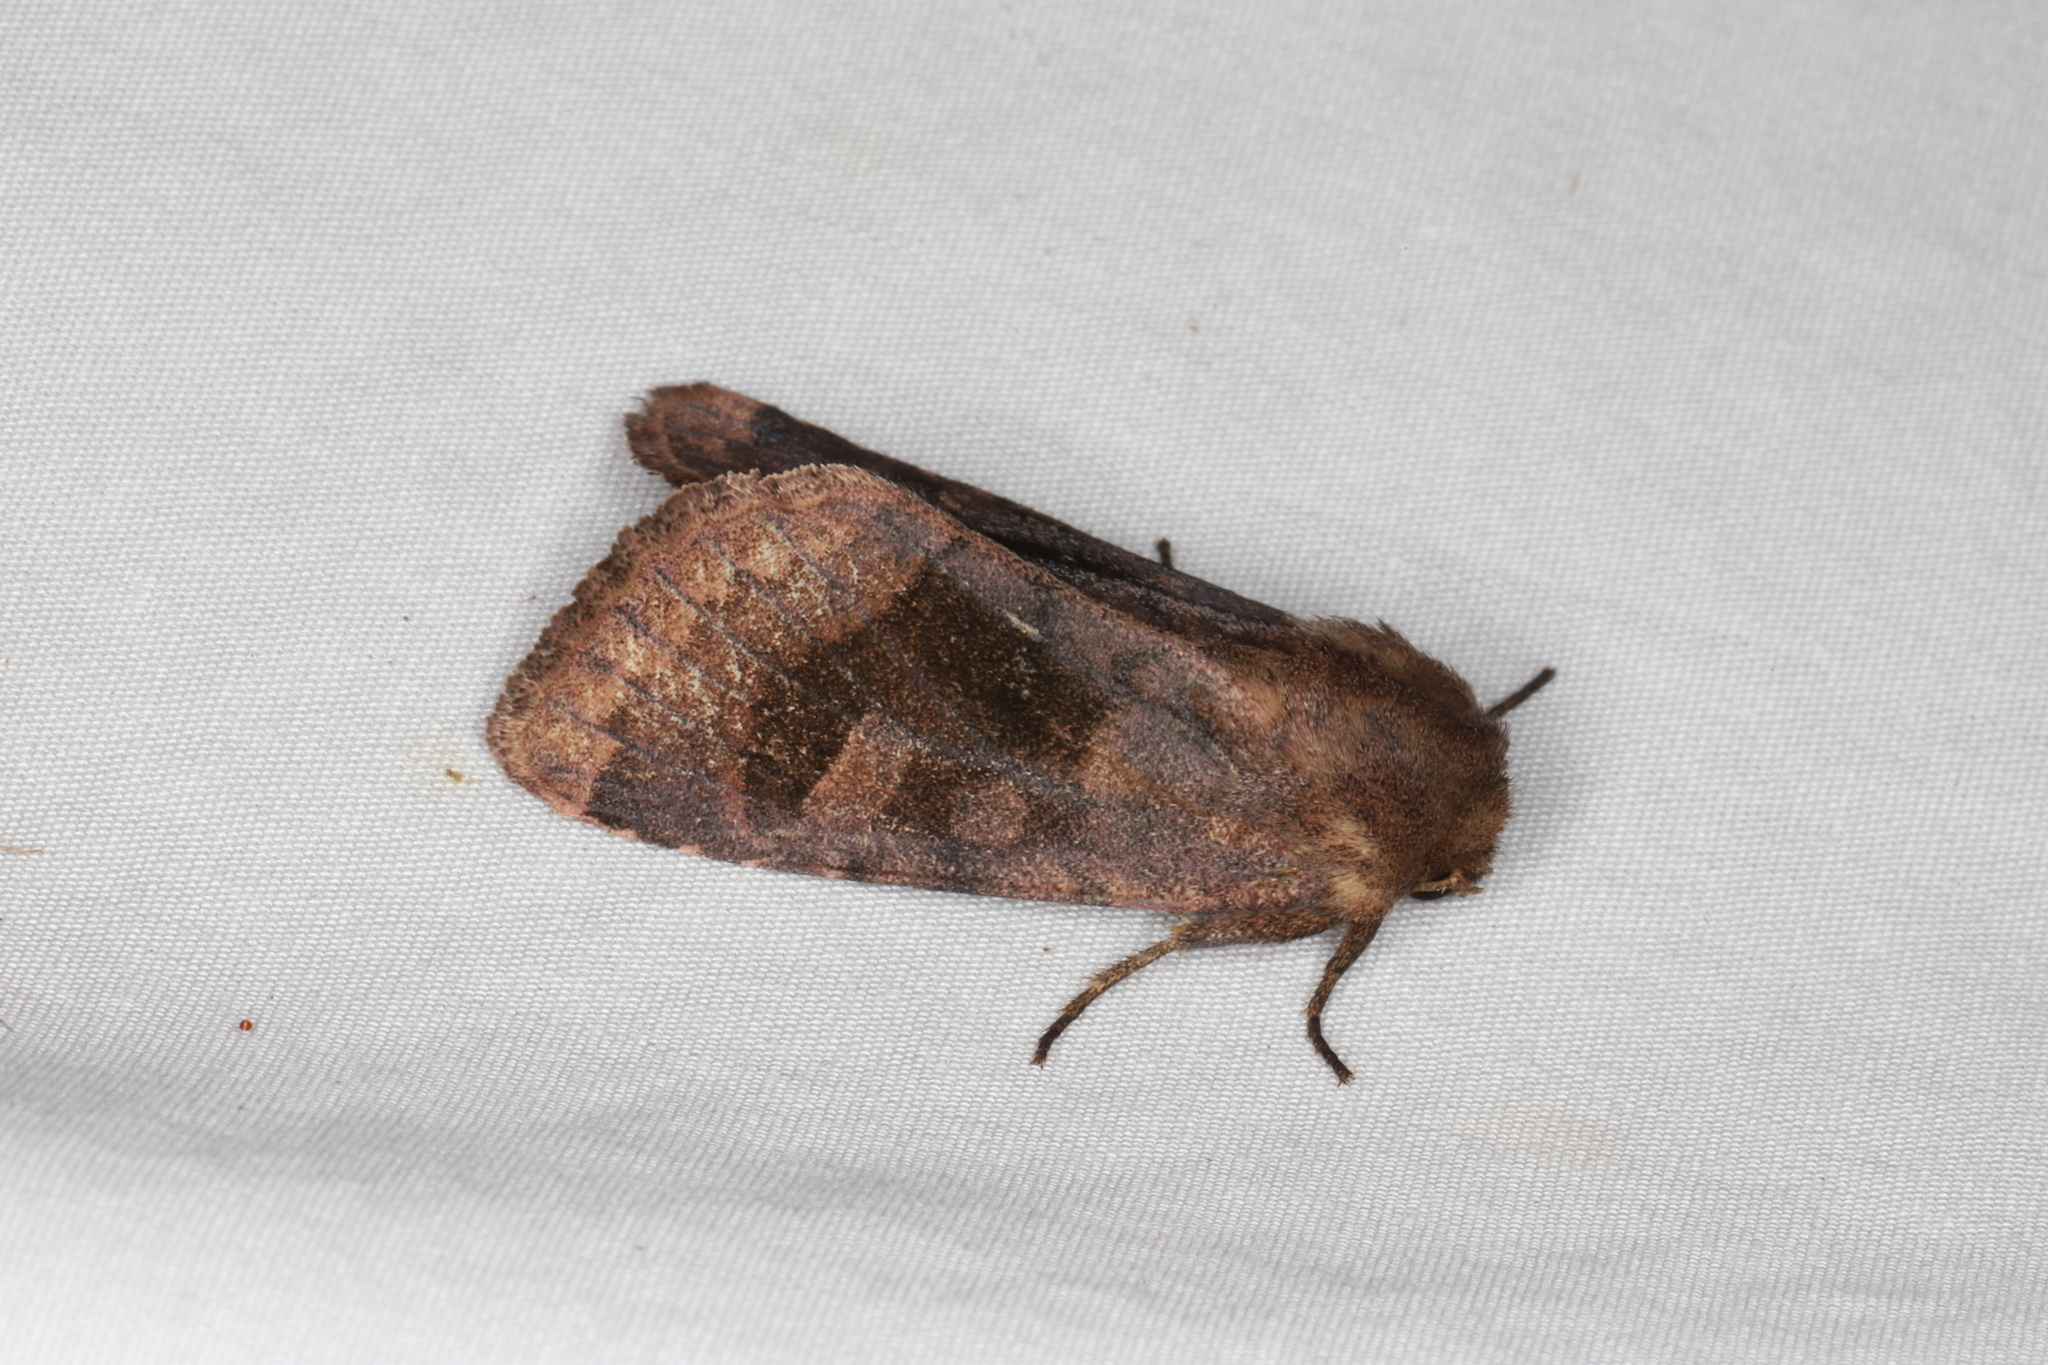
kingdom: Animalia
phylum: Arthropoda
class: Insecta
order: Lepidoptera
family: Noctuidae
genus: Nephelodes
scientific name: Nephelodes minians
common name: Bronzed cutworm
